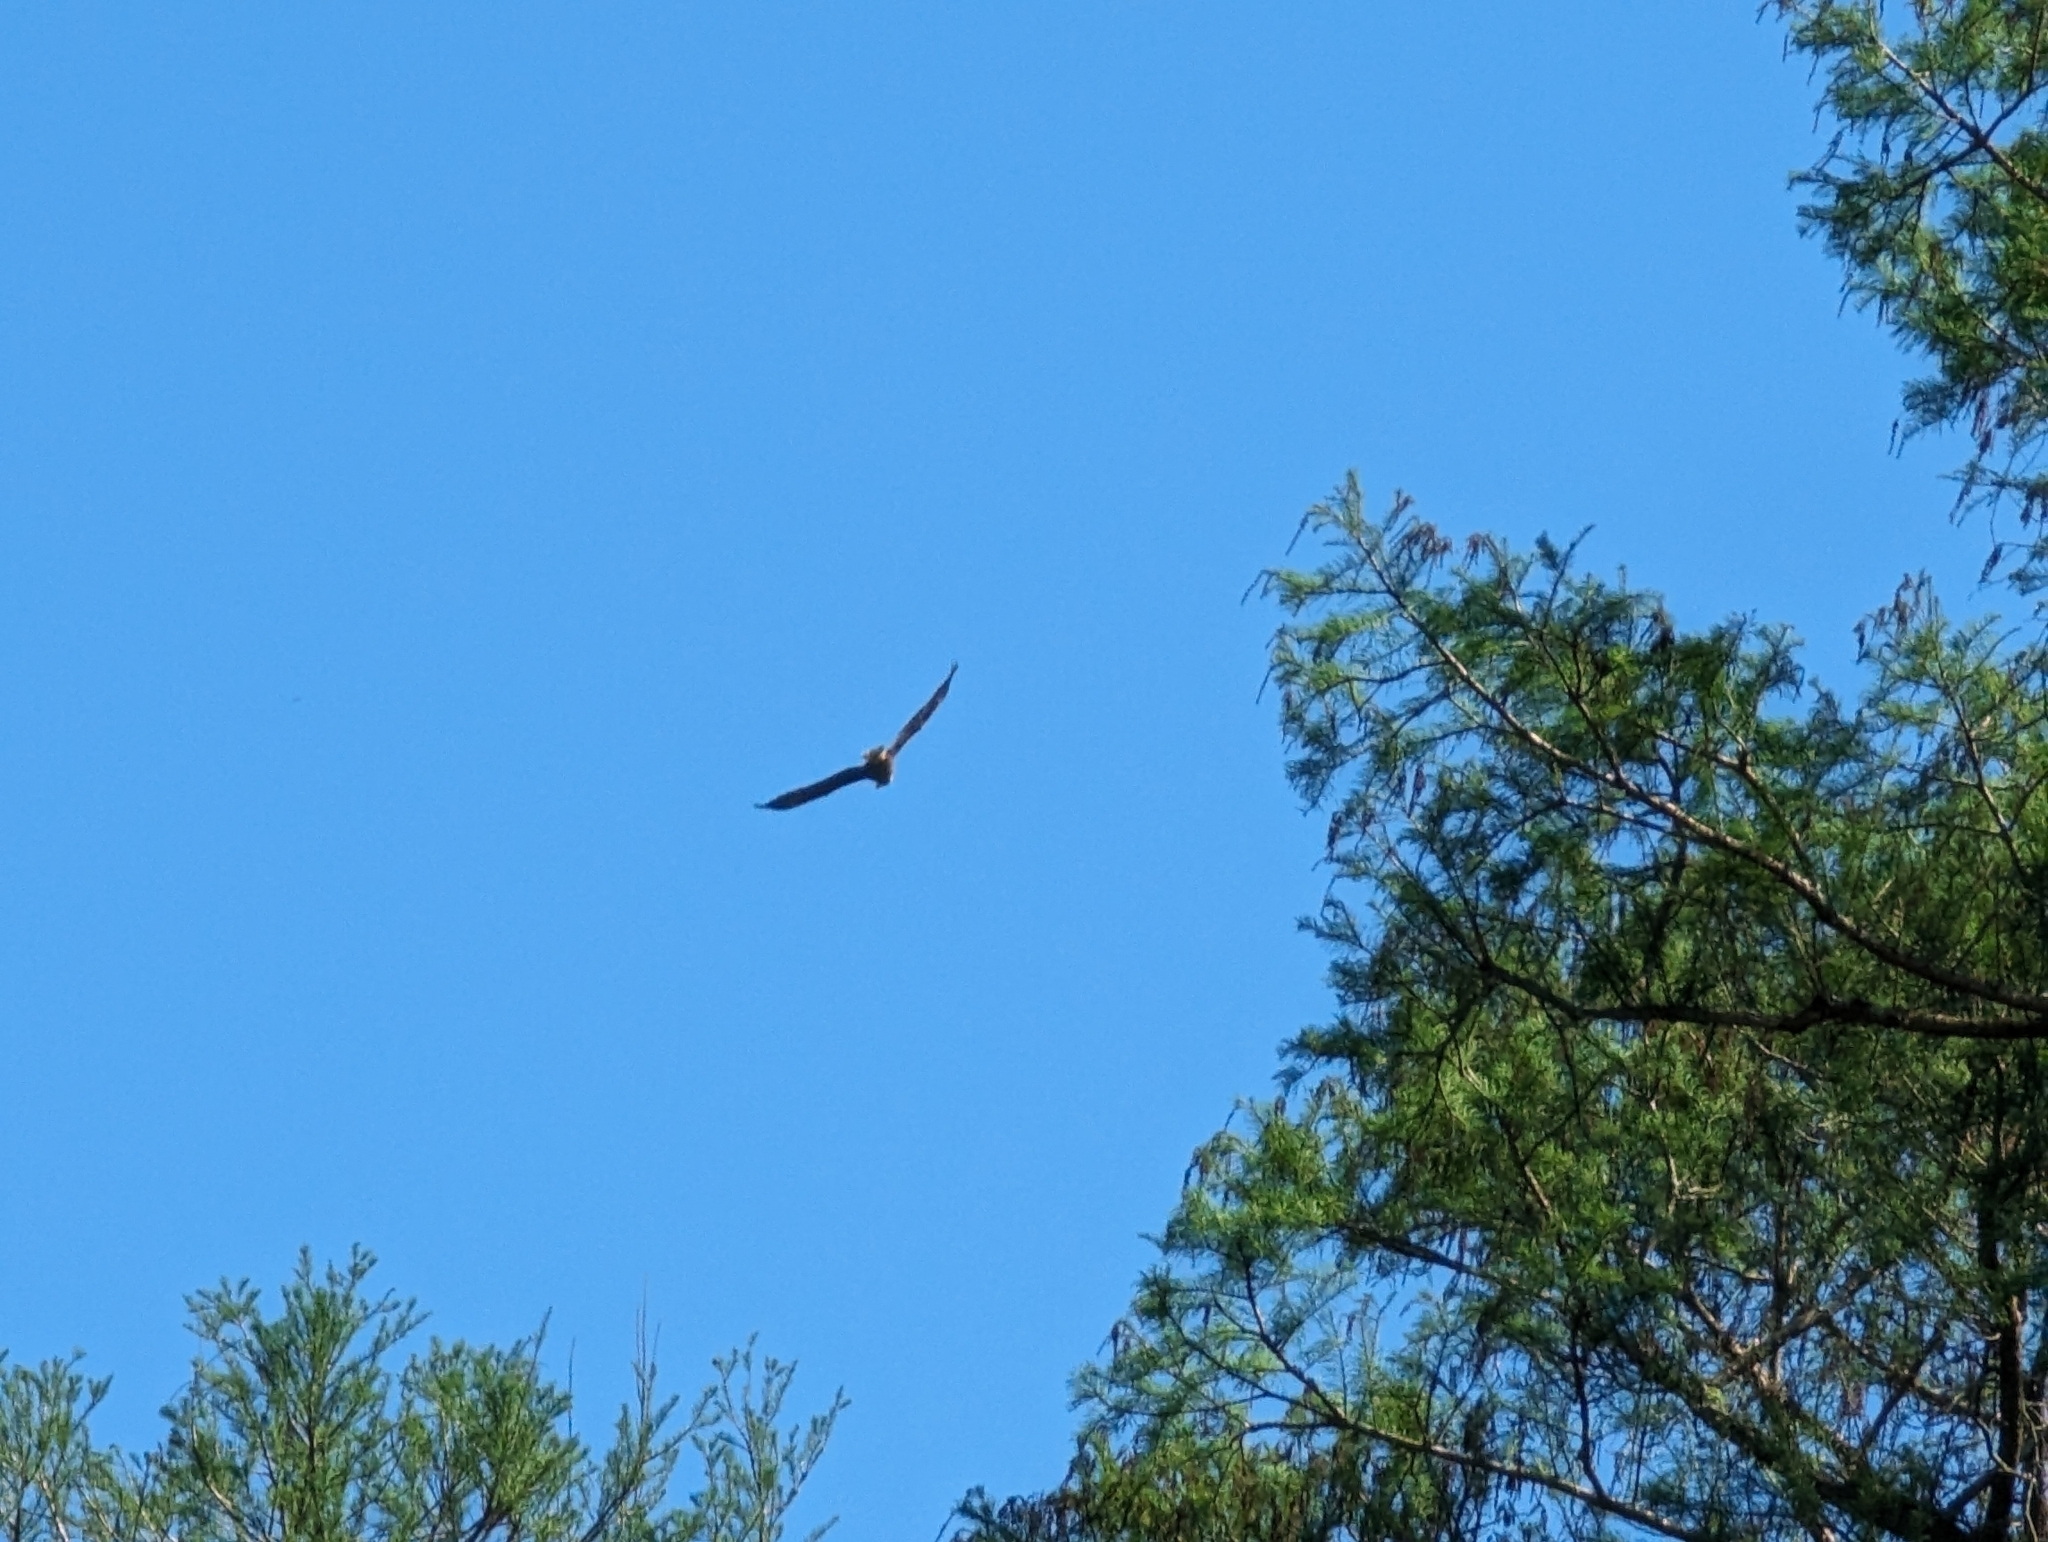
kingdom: Animalia
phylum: Chordata
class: Aves
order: Accipitriformes
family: Accipitridae
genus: Haliaeetus
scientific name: Haliaeetus leucocephalus
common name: Bald eagle
